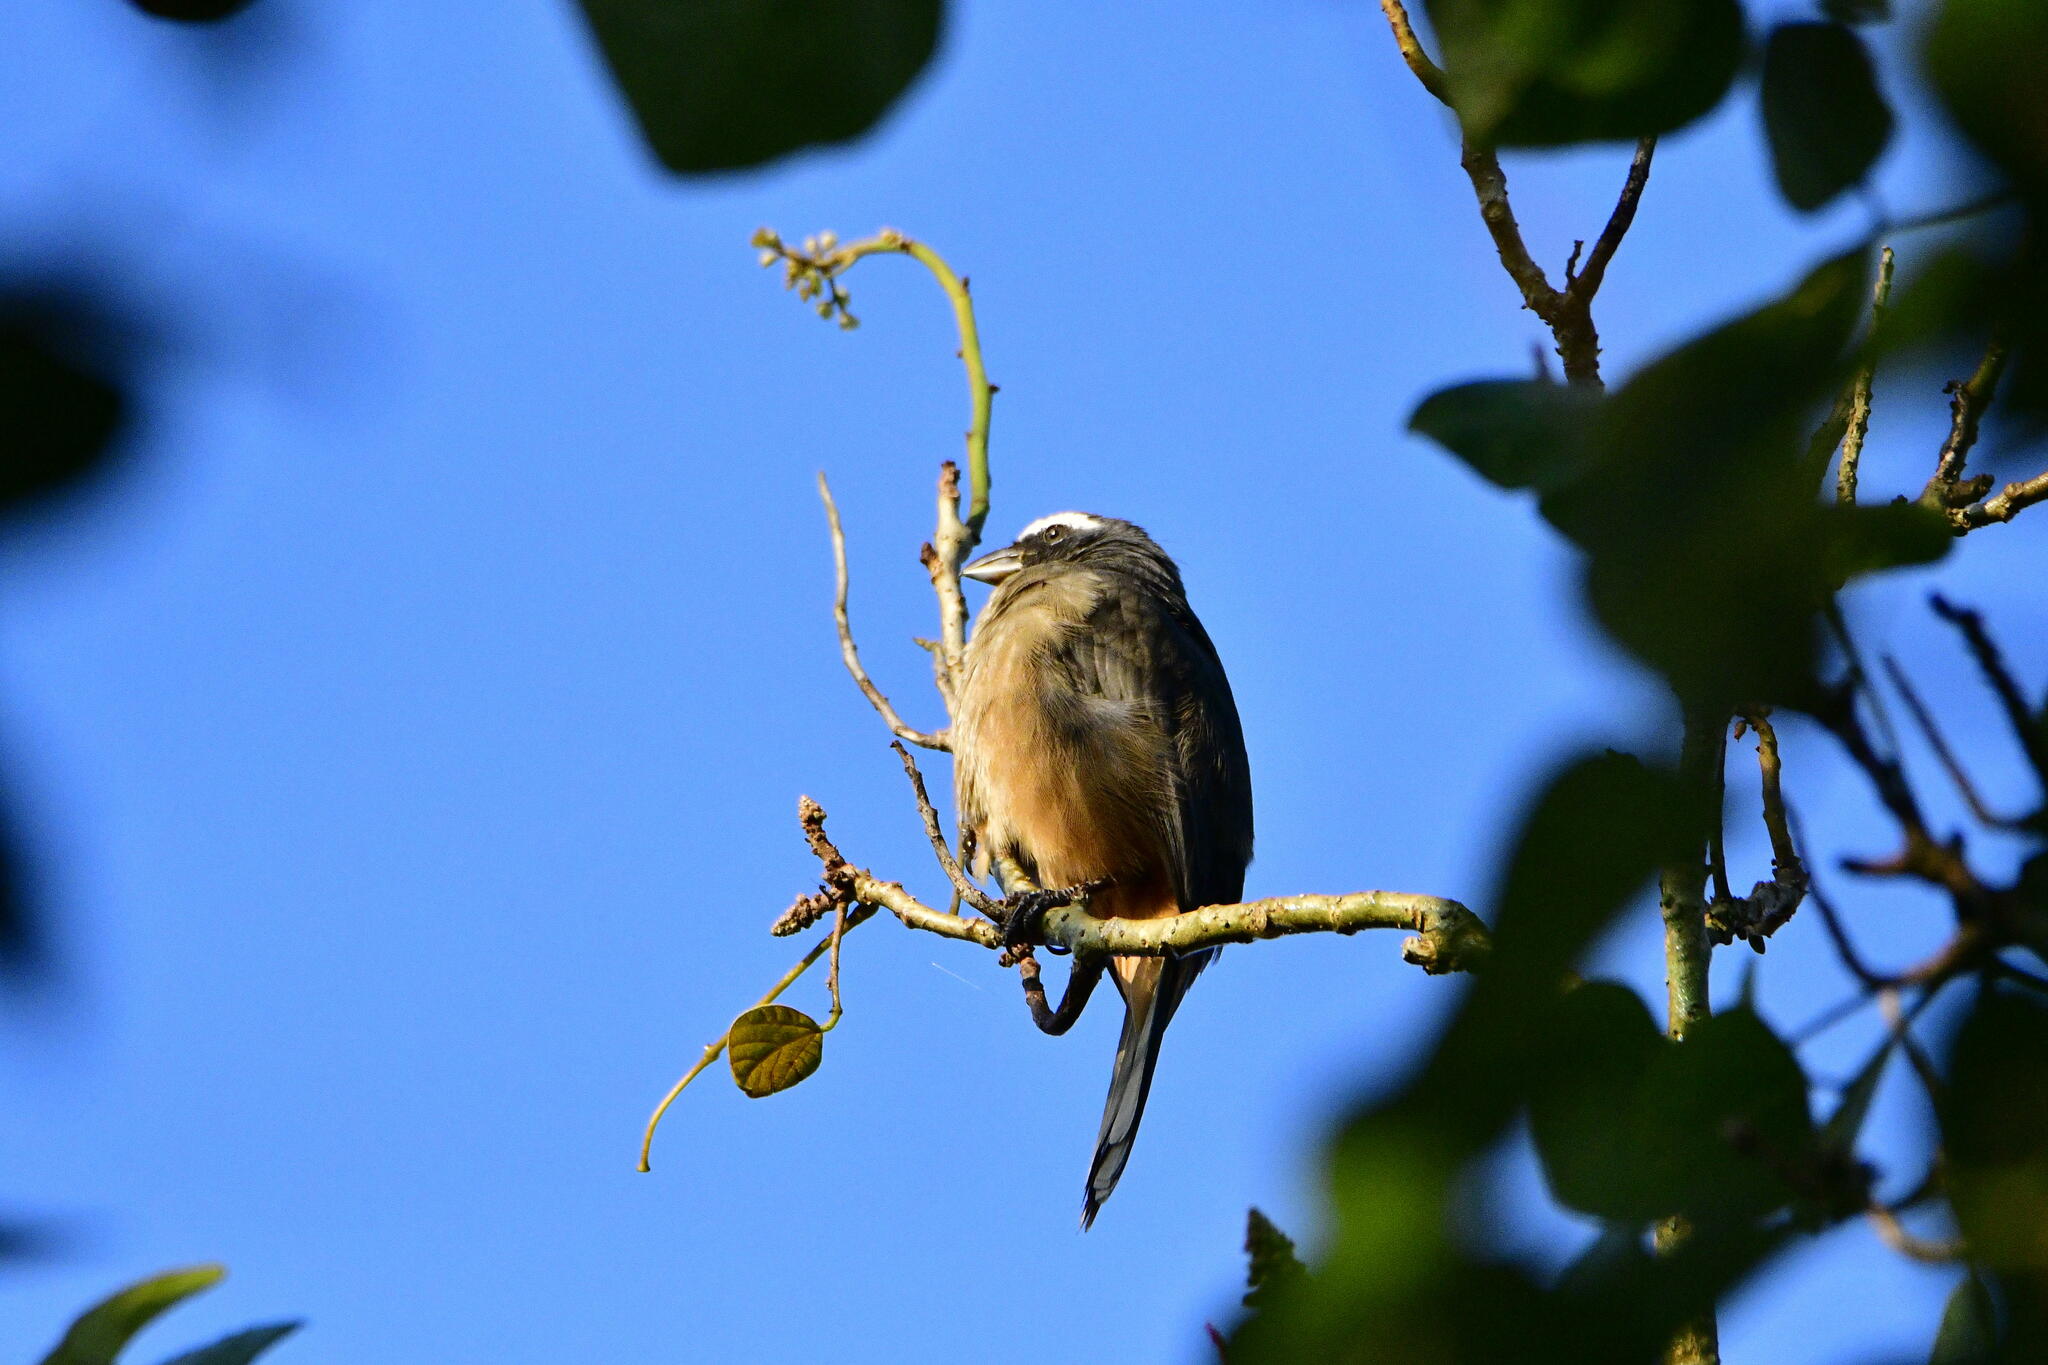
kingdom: Animalia
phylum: Chordata
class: Aves
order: Passeriformes
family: Thraupidae
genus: Saltator
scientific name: Saltator grandis
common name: Cinnamon-bellied saltator
